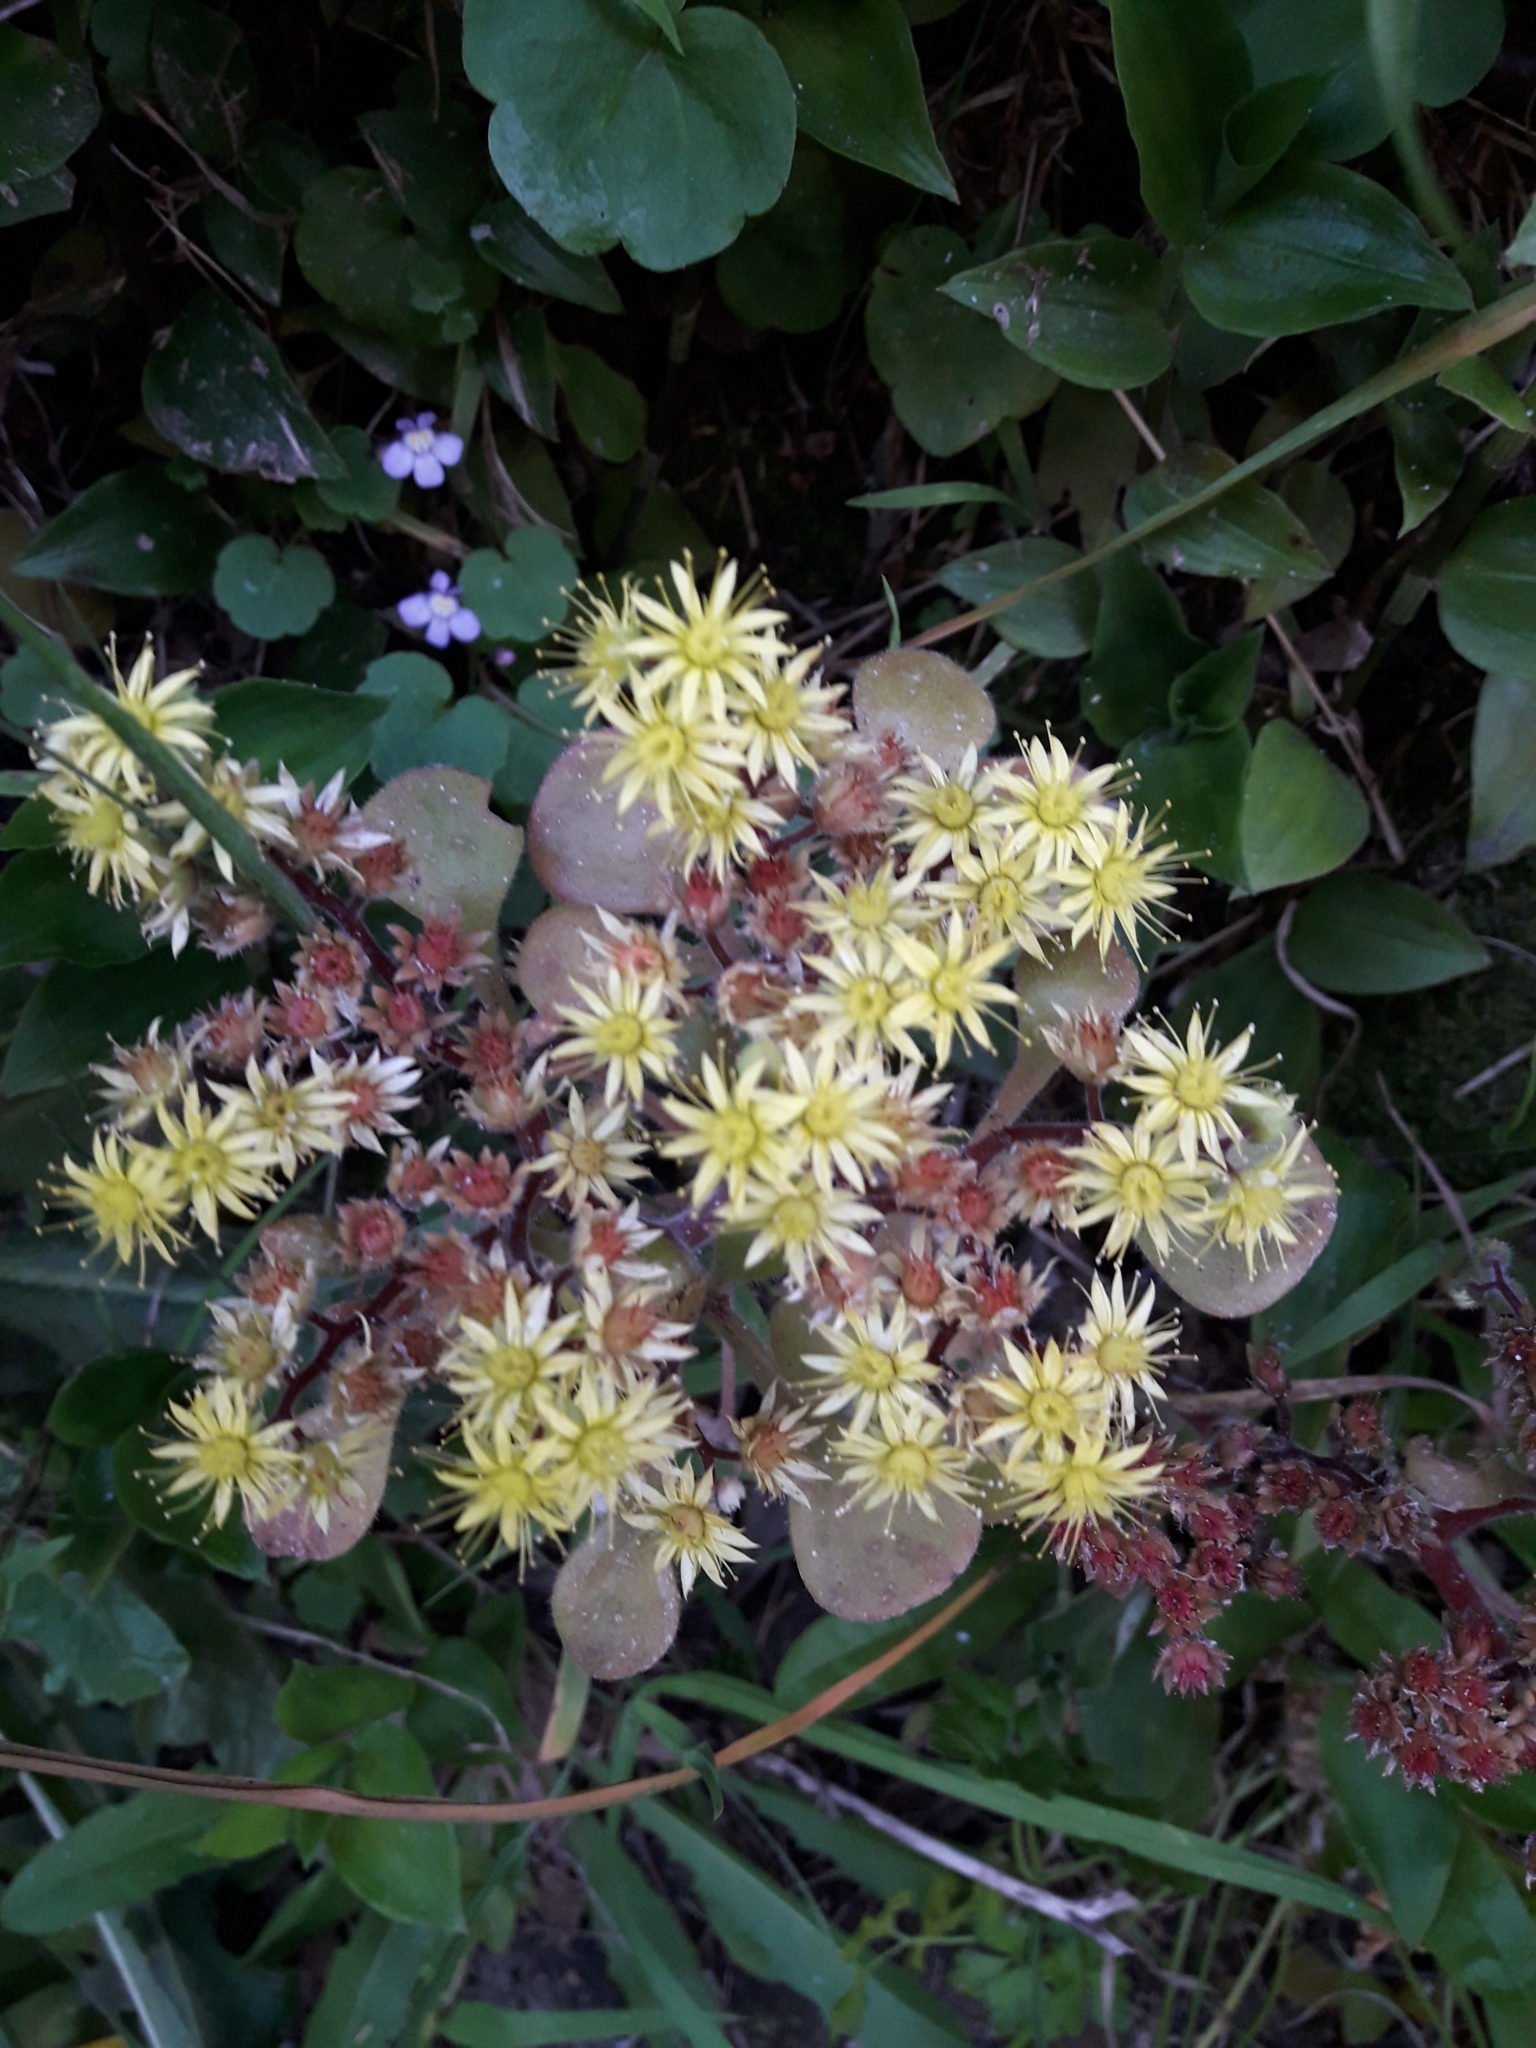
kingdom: Plantae
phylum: Tracheophyta
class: Magnoliopsida
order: Saxifragales
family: Crassulaceae
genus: Aichryson
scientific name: Aichryson laxum
